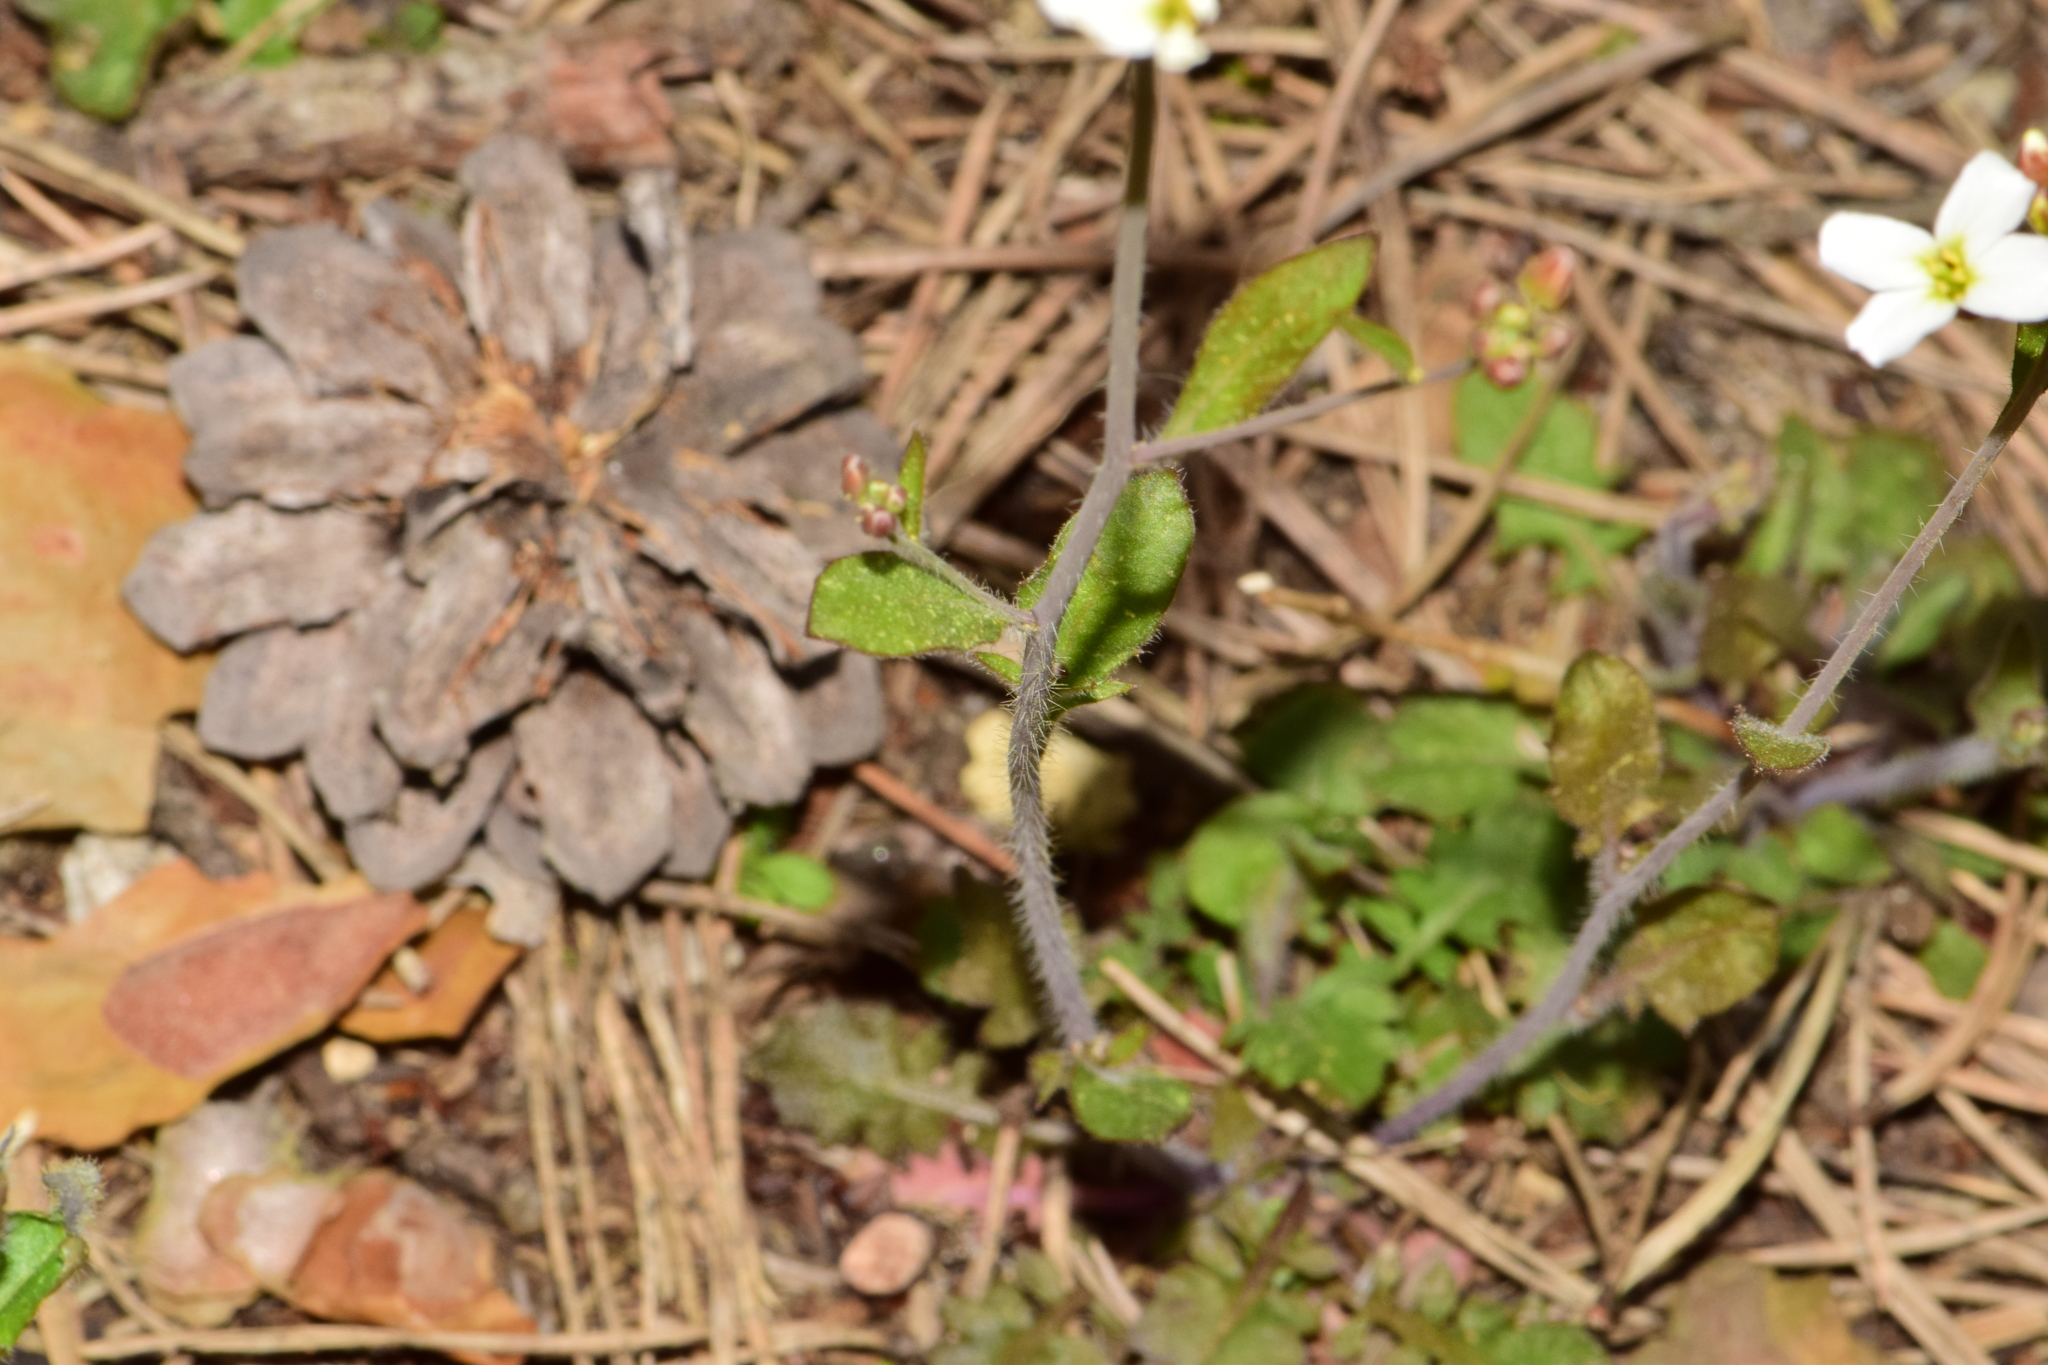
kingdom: Plantae
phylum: Tracheophyta
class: Magnoliopsida
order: Brassicales
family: Brassicaceae
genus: Arabidopsis
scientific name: Arabidopsis arenosa
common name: Sand rock-cress
